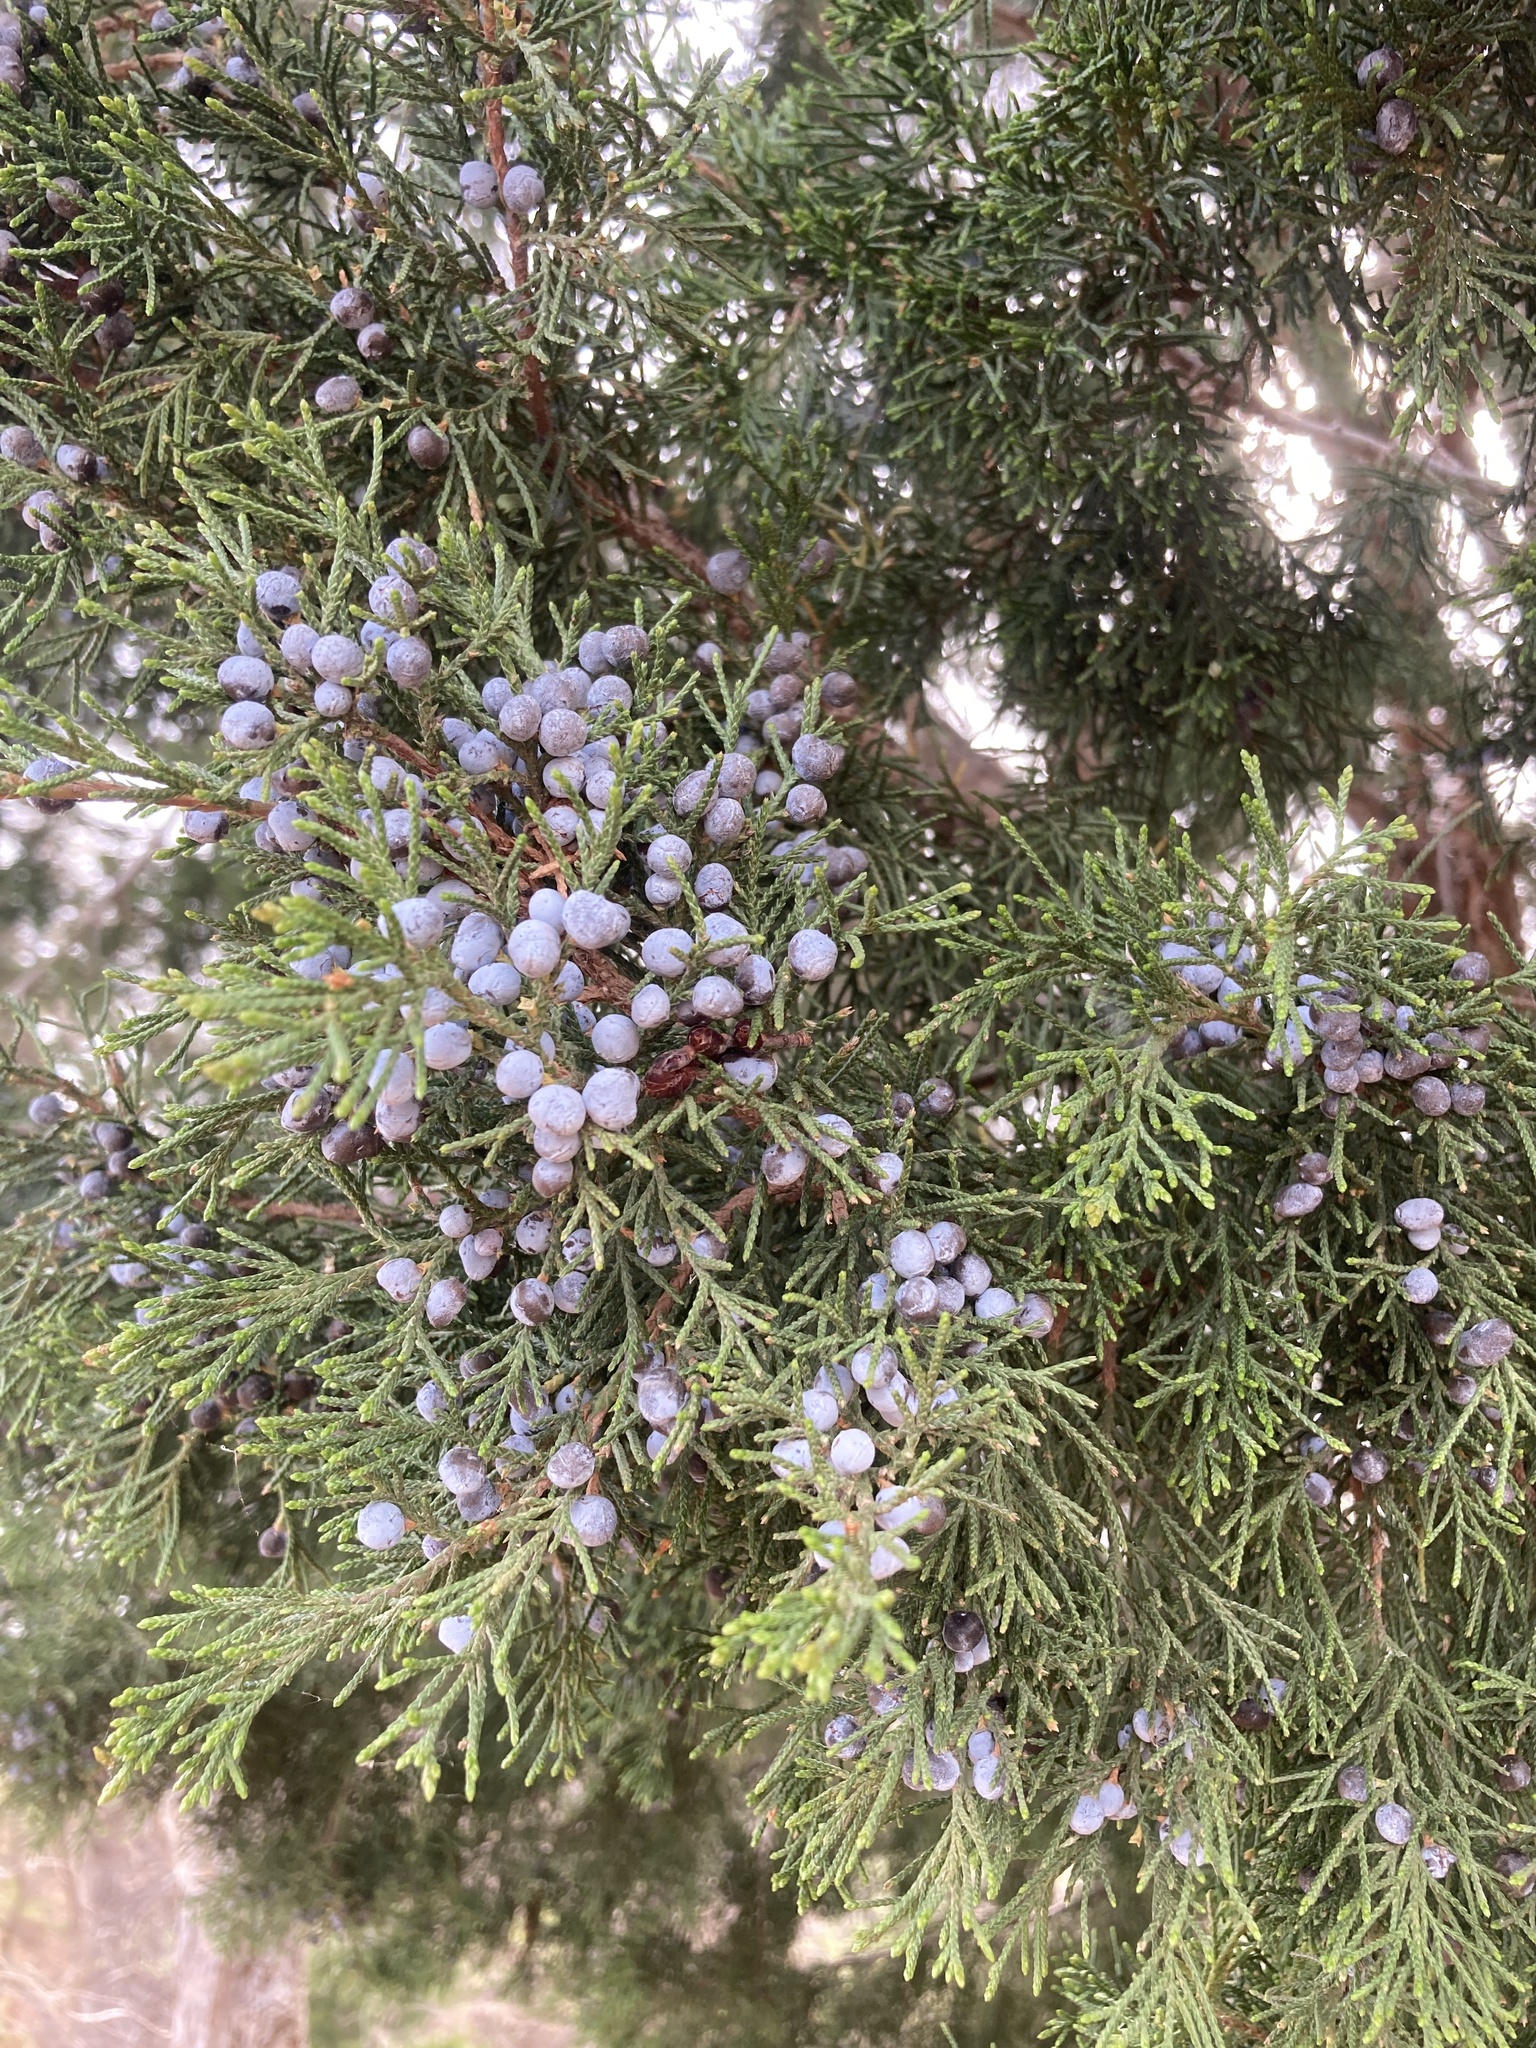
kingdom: Plantae
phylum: Tracheophyta
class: Pinopsida
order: Pinales
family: Cupressaceae
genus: Juniperus
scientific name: Juniperus virginiana
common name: Red juniper
